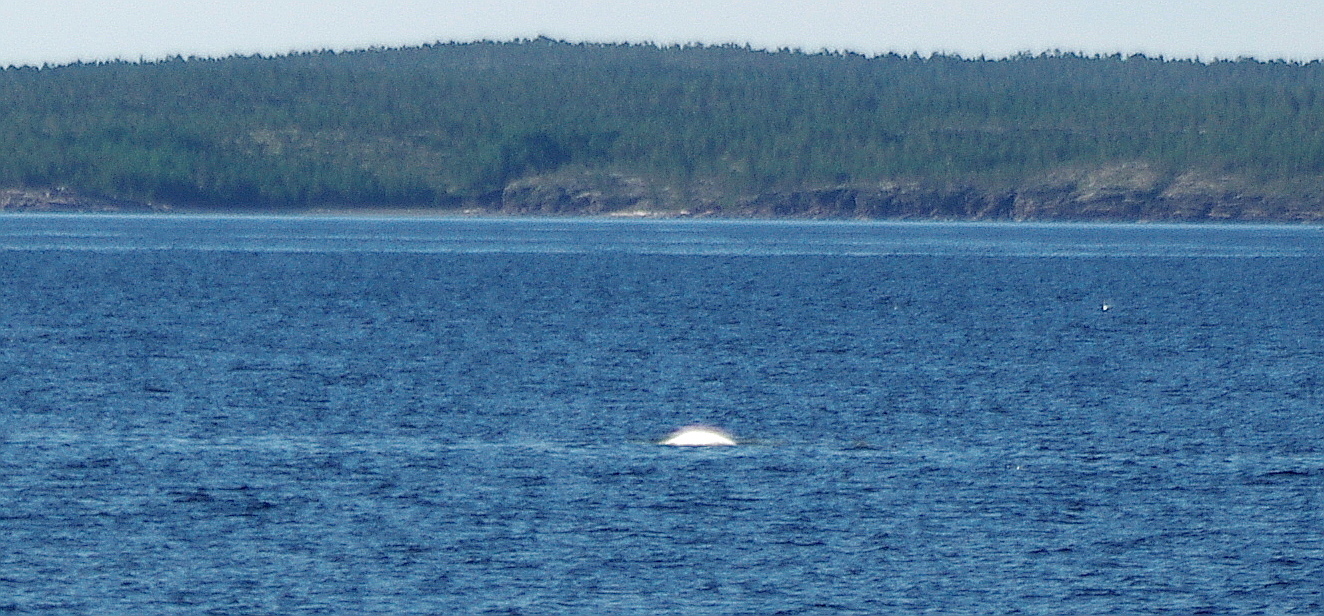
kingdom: Animalia
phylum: Chordata
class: Mammalia
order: Cetacea
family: Monodontidae
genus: Delphinapterus
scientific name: Delphinapterus leucas
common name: Beluga
